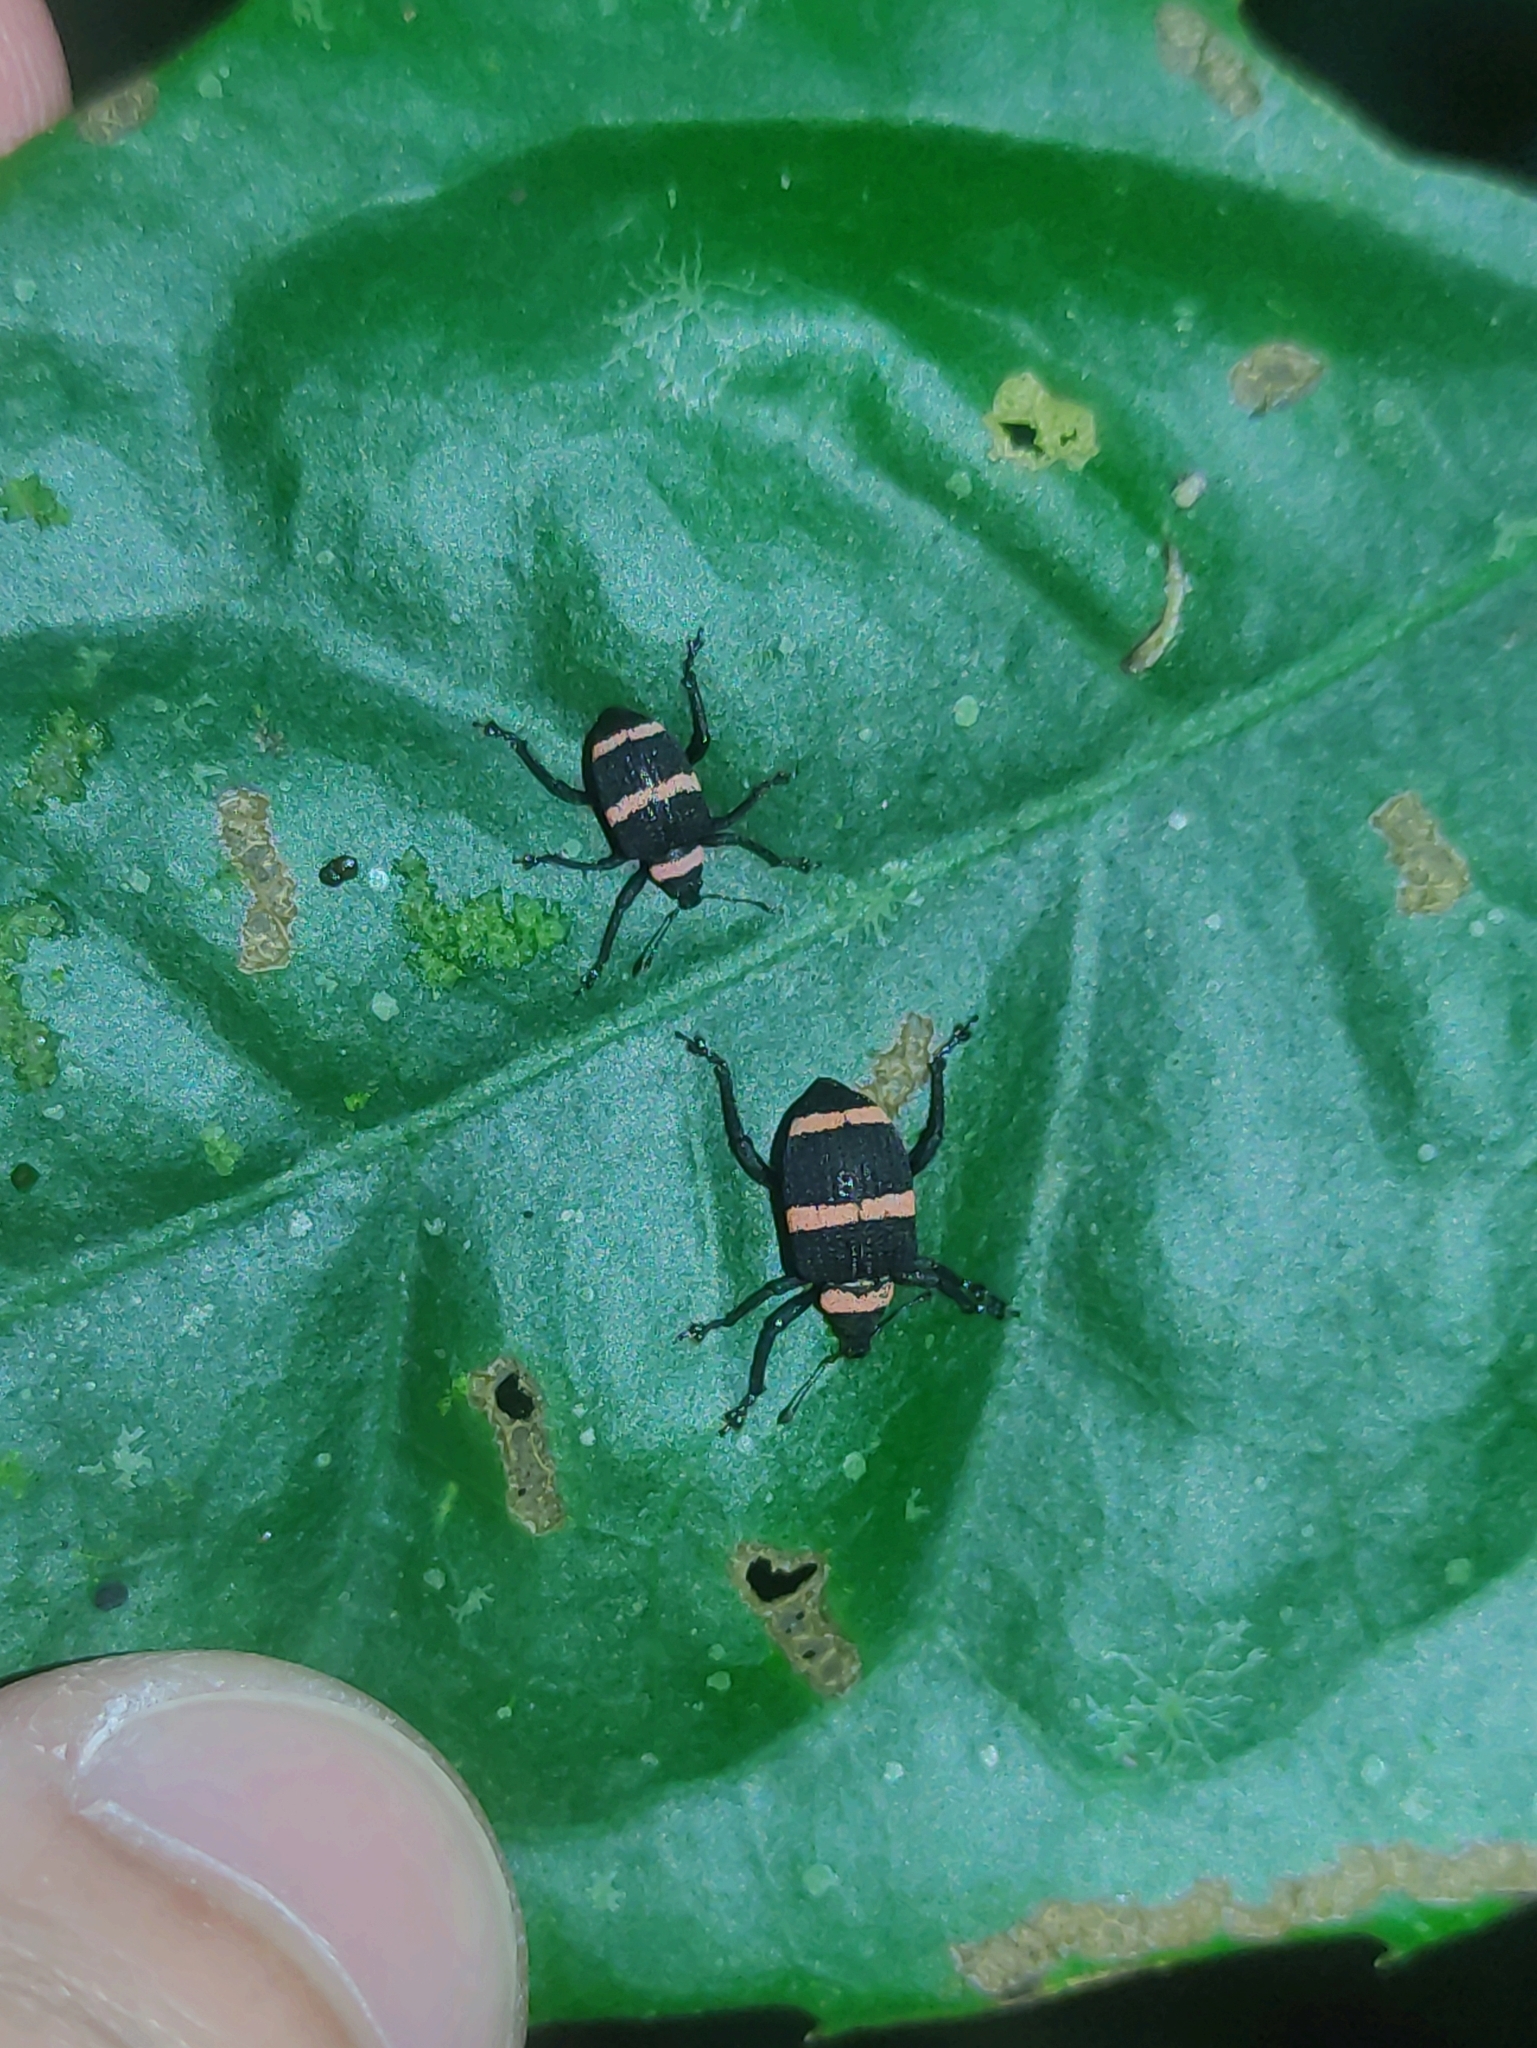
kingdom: Animalia
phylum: Arthropoda
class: Insecta
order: Coleoptera
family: Curculionidae
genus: Entyus
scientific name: Entyus auricinctus
